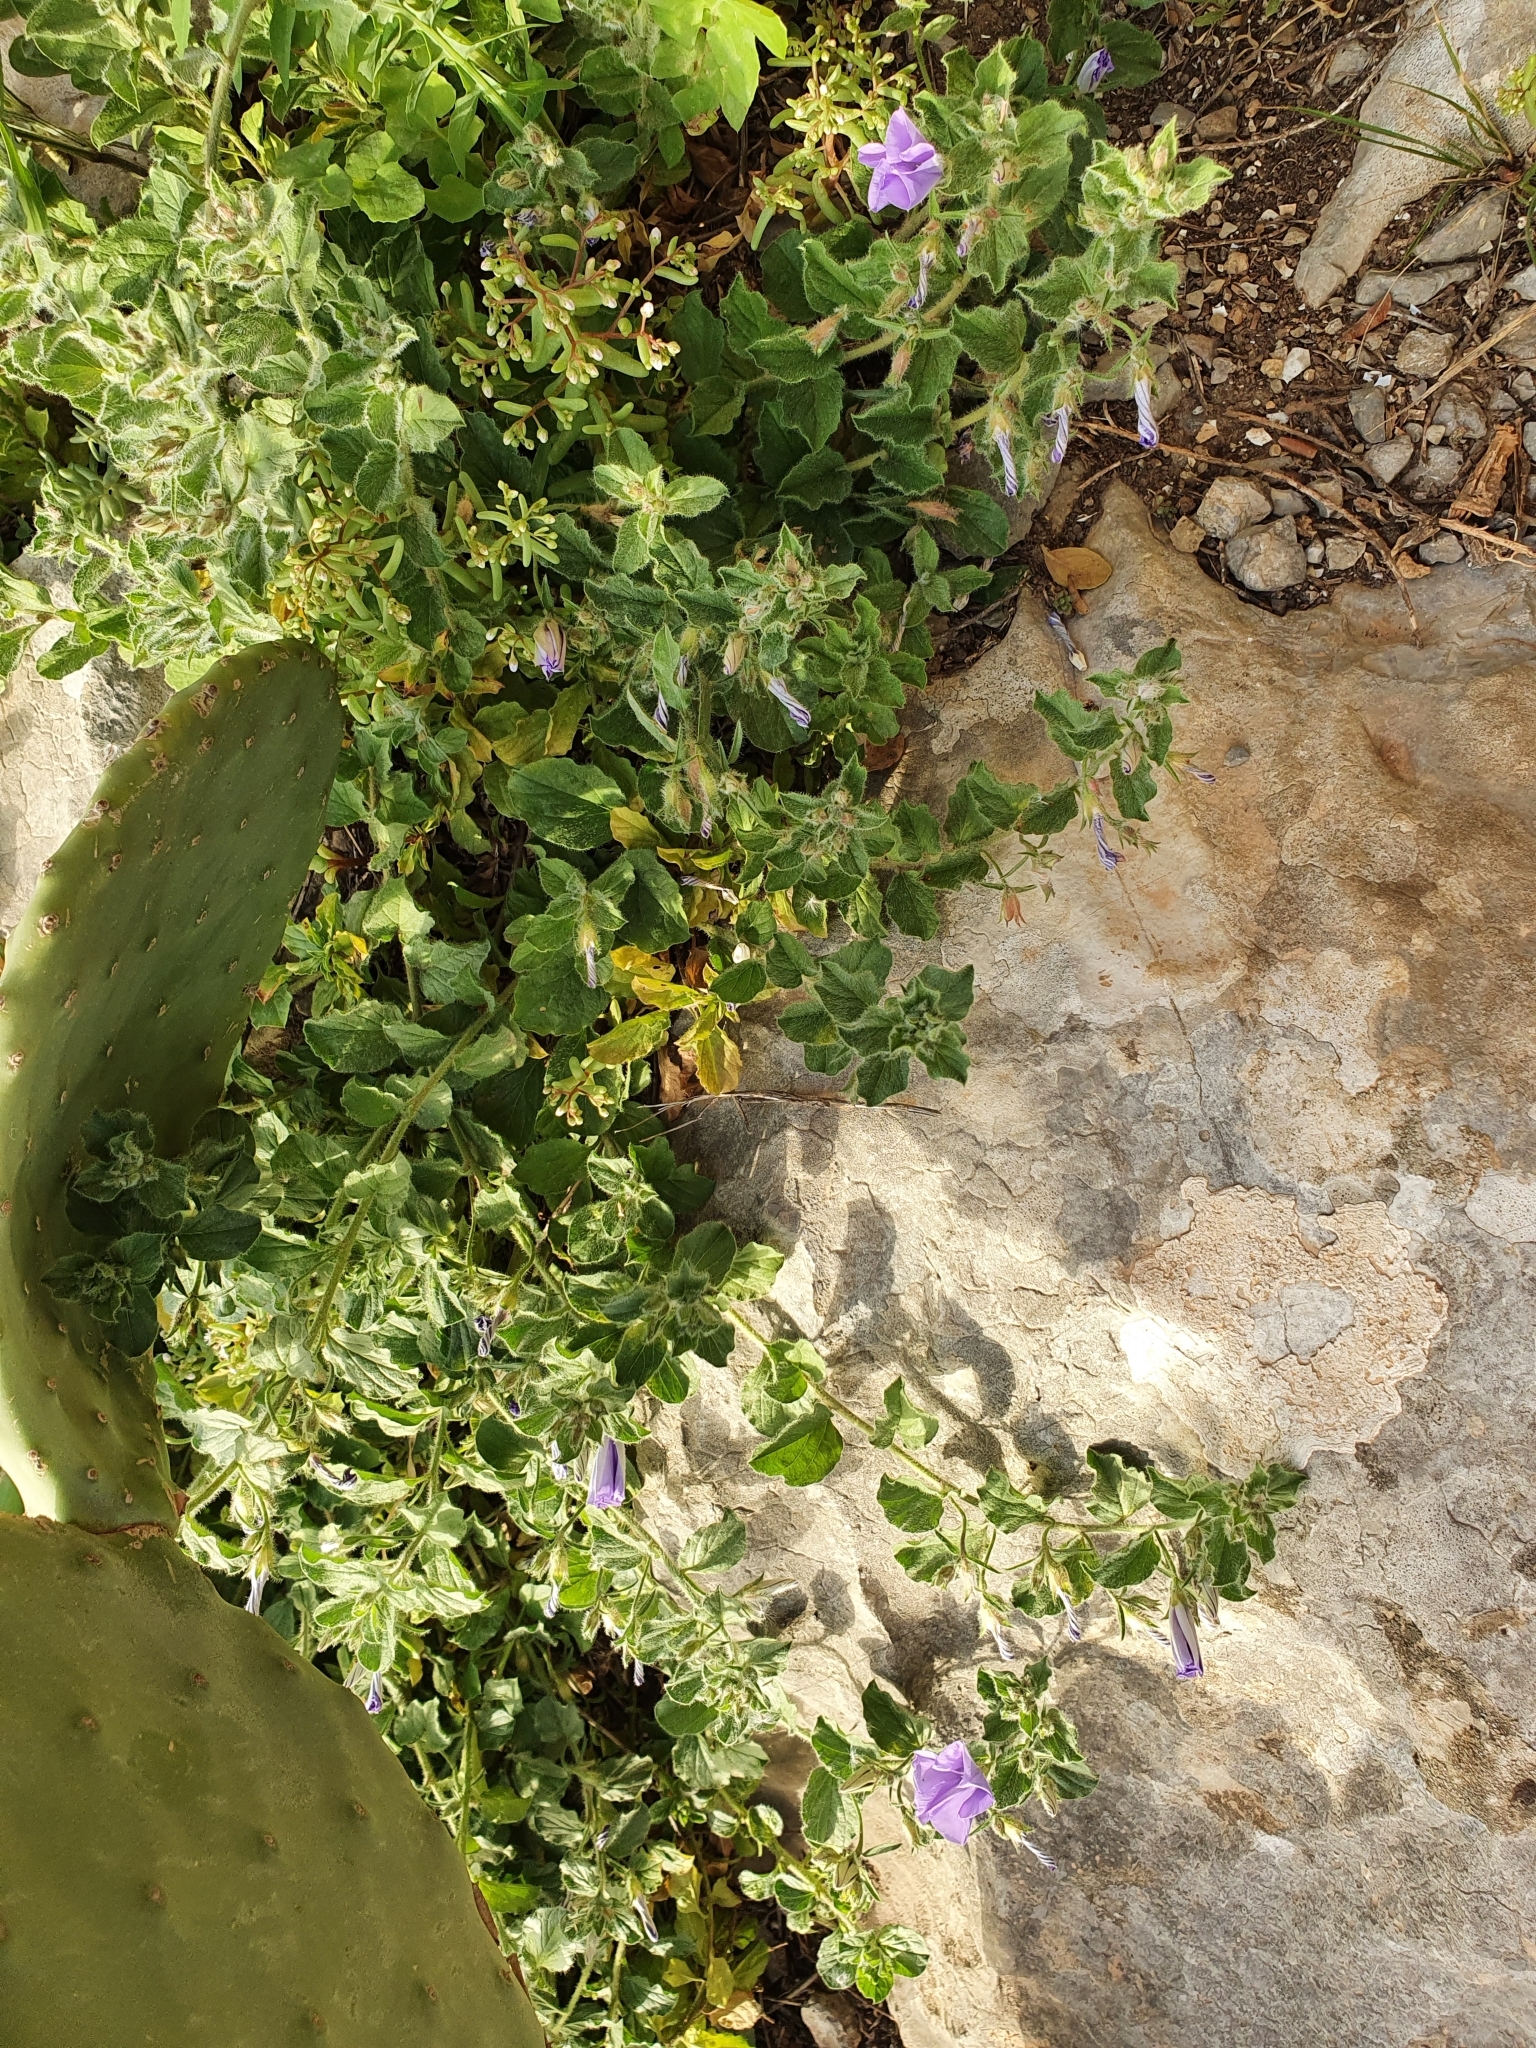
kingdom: Plantae
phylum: Tracheophyta
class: Magnoliopsida
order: Solanales
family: Convolvulaceae
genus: Convolvulus
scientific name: Convolvulus sabatius
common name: Ground blue-convolvulus
